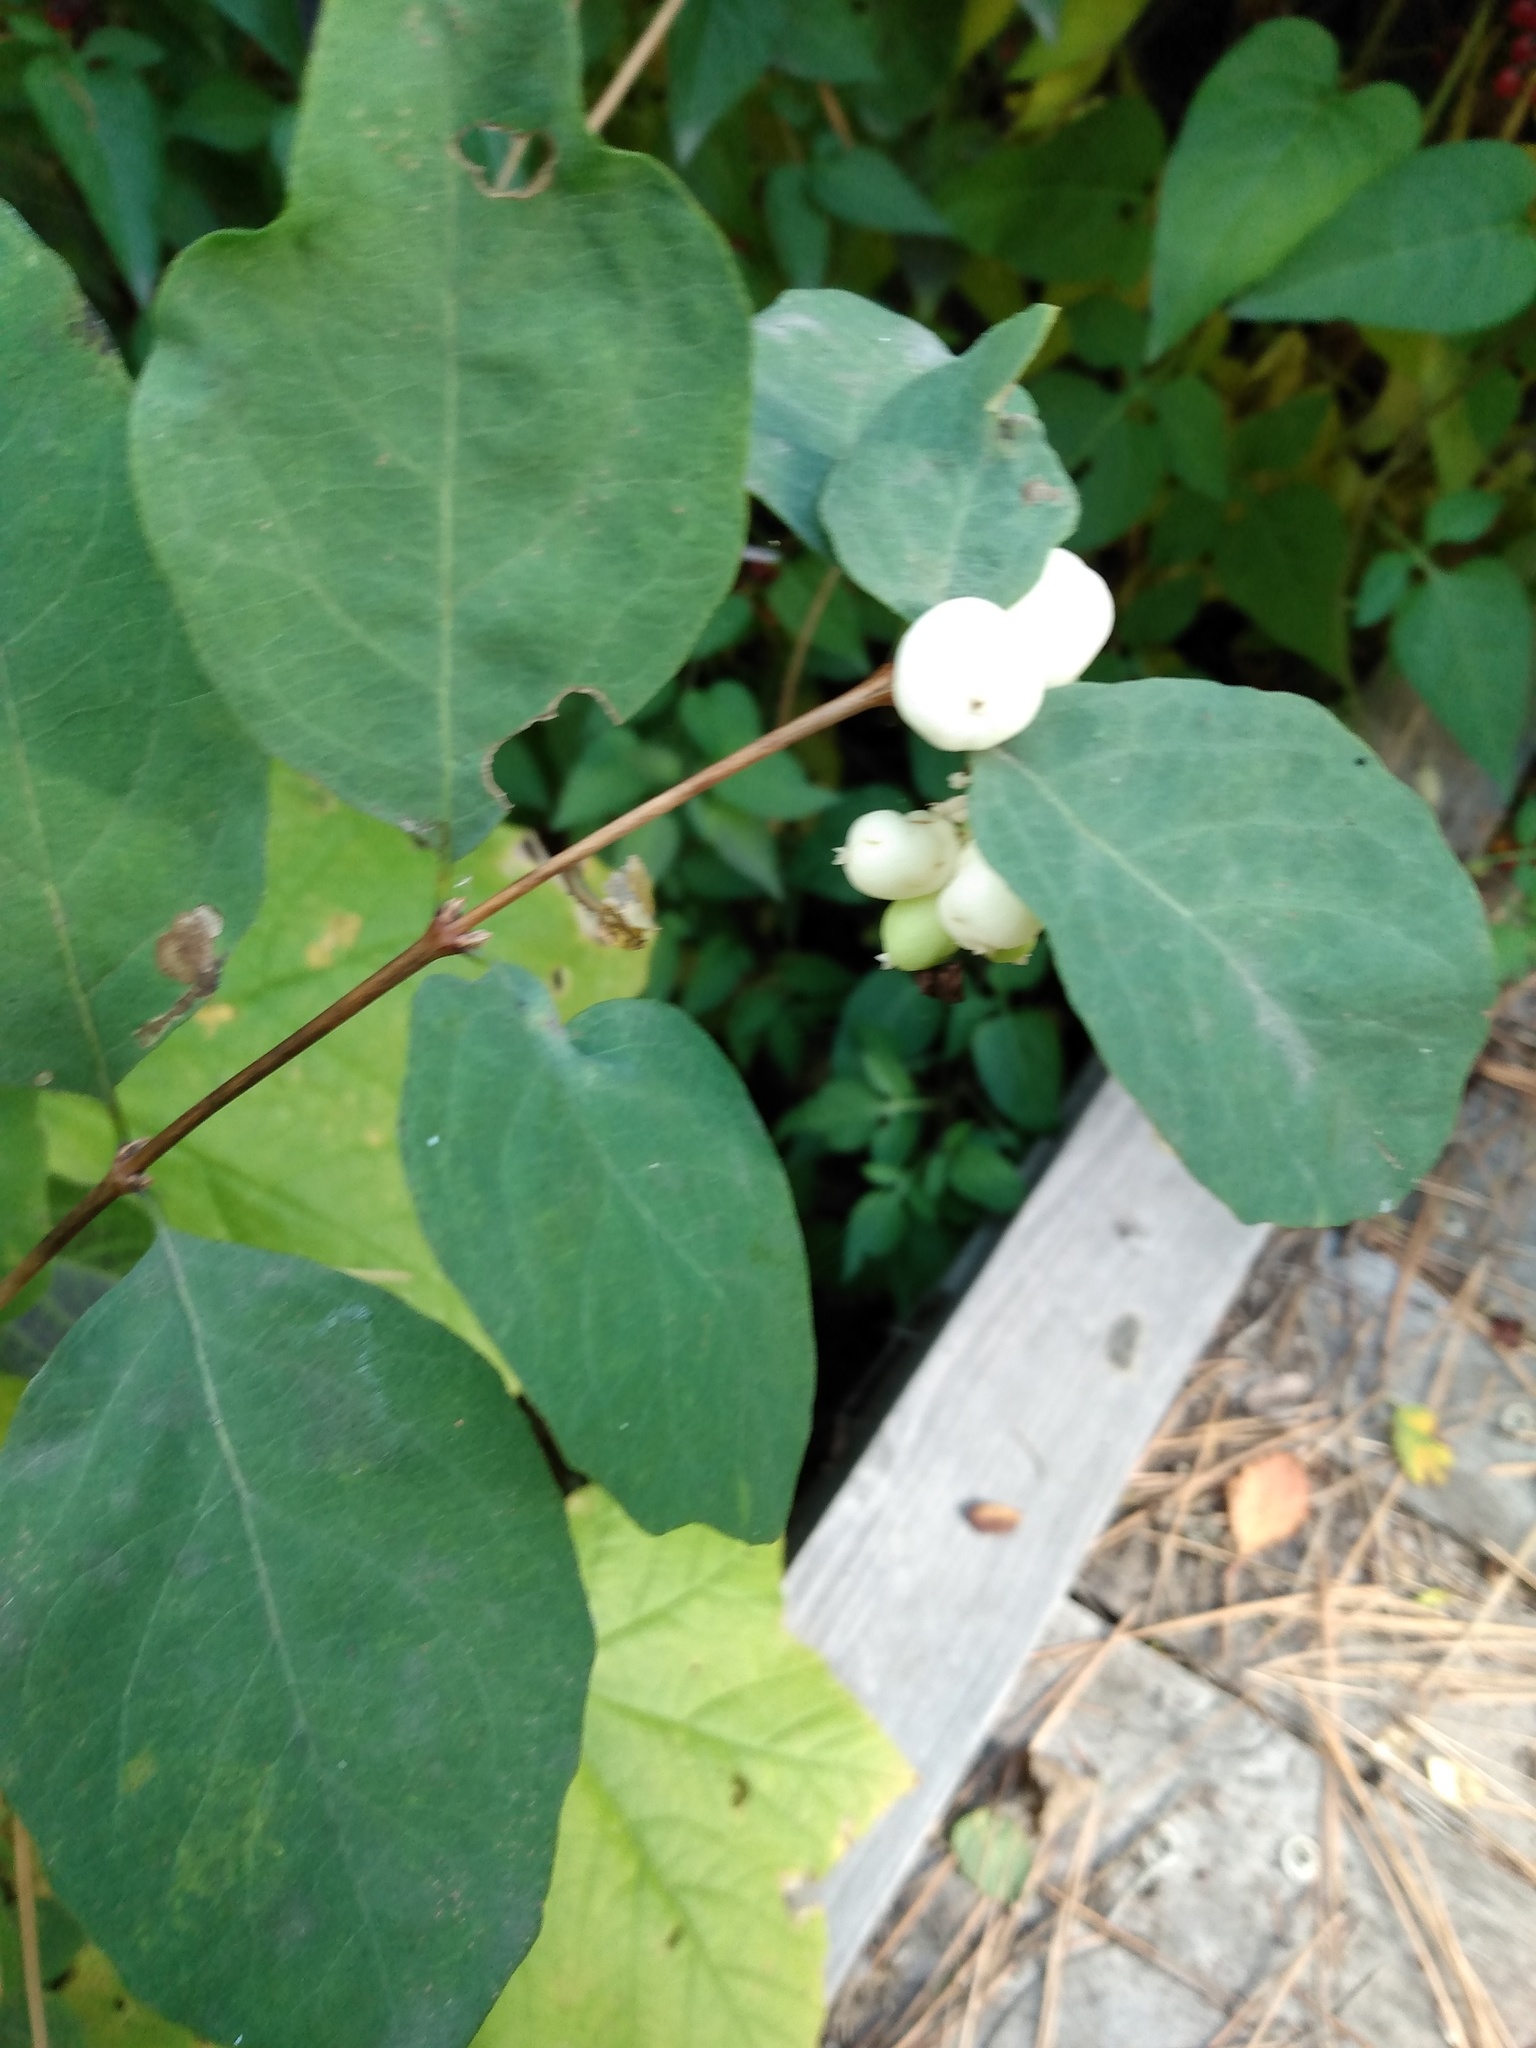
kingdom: Plantae
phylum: Tracheophyta
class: Magnoliopsida
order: Dipsacales
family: Caprifoliaceae
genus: Symphoricarpos
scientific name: Symphoricarpos albus
